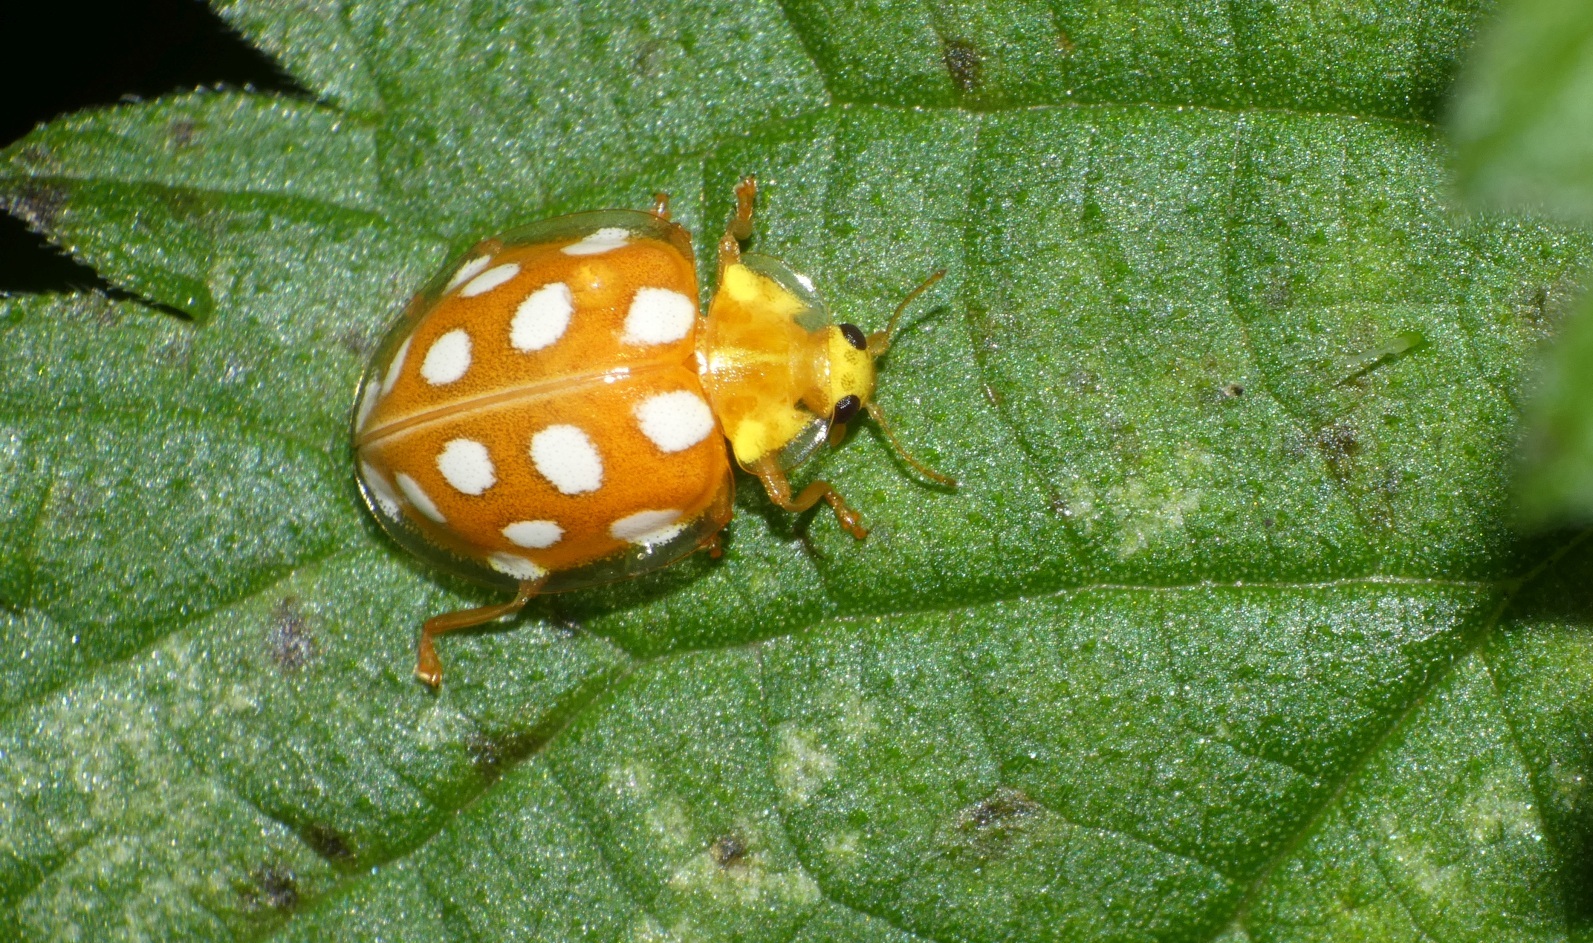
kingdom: Animalia
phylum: Arthropoda
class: Insecta
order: Coleoptera
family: Coccinellidae
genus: Halyzia
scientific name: Halyzia sedecimguttata
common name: Orange ladybird
